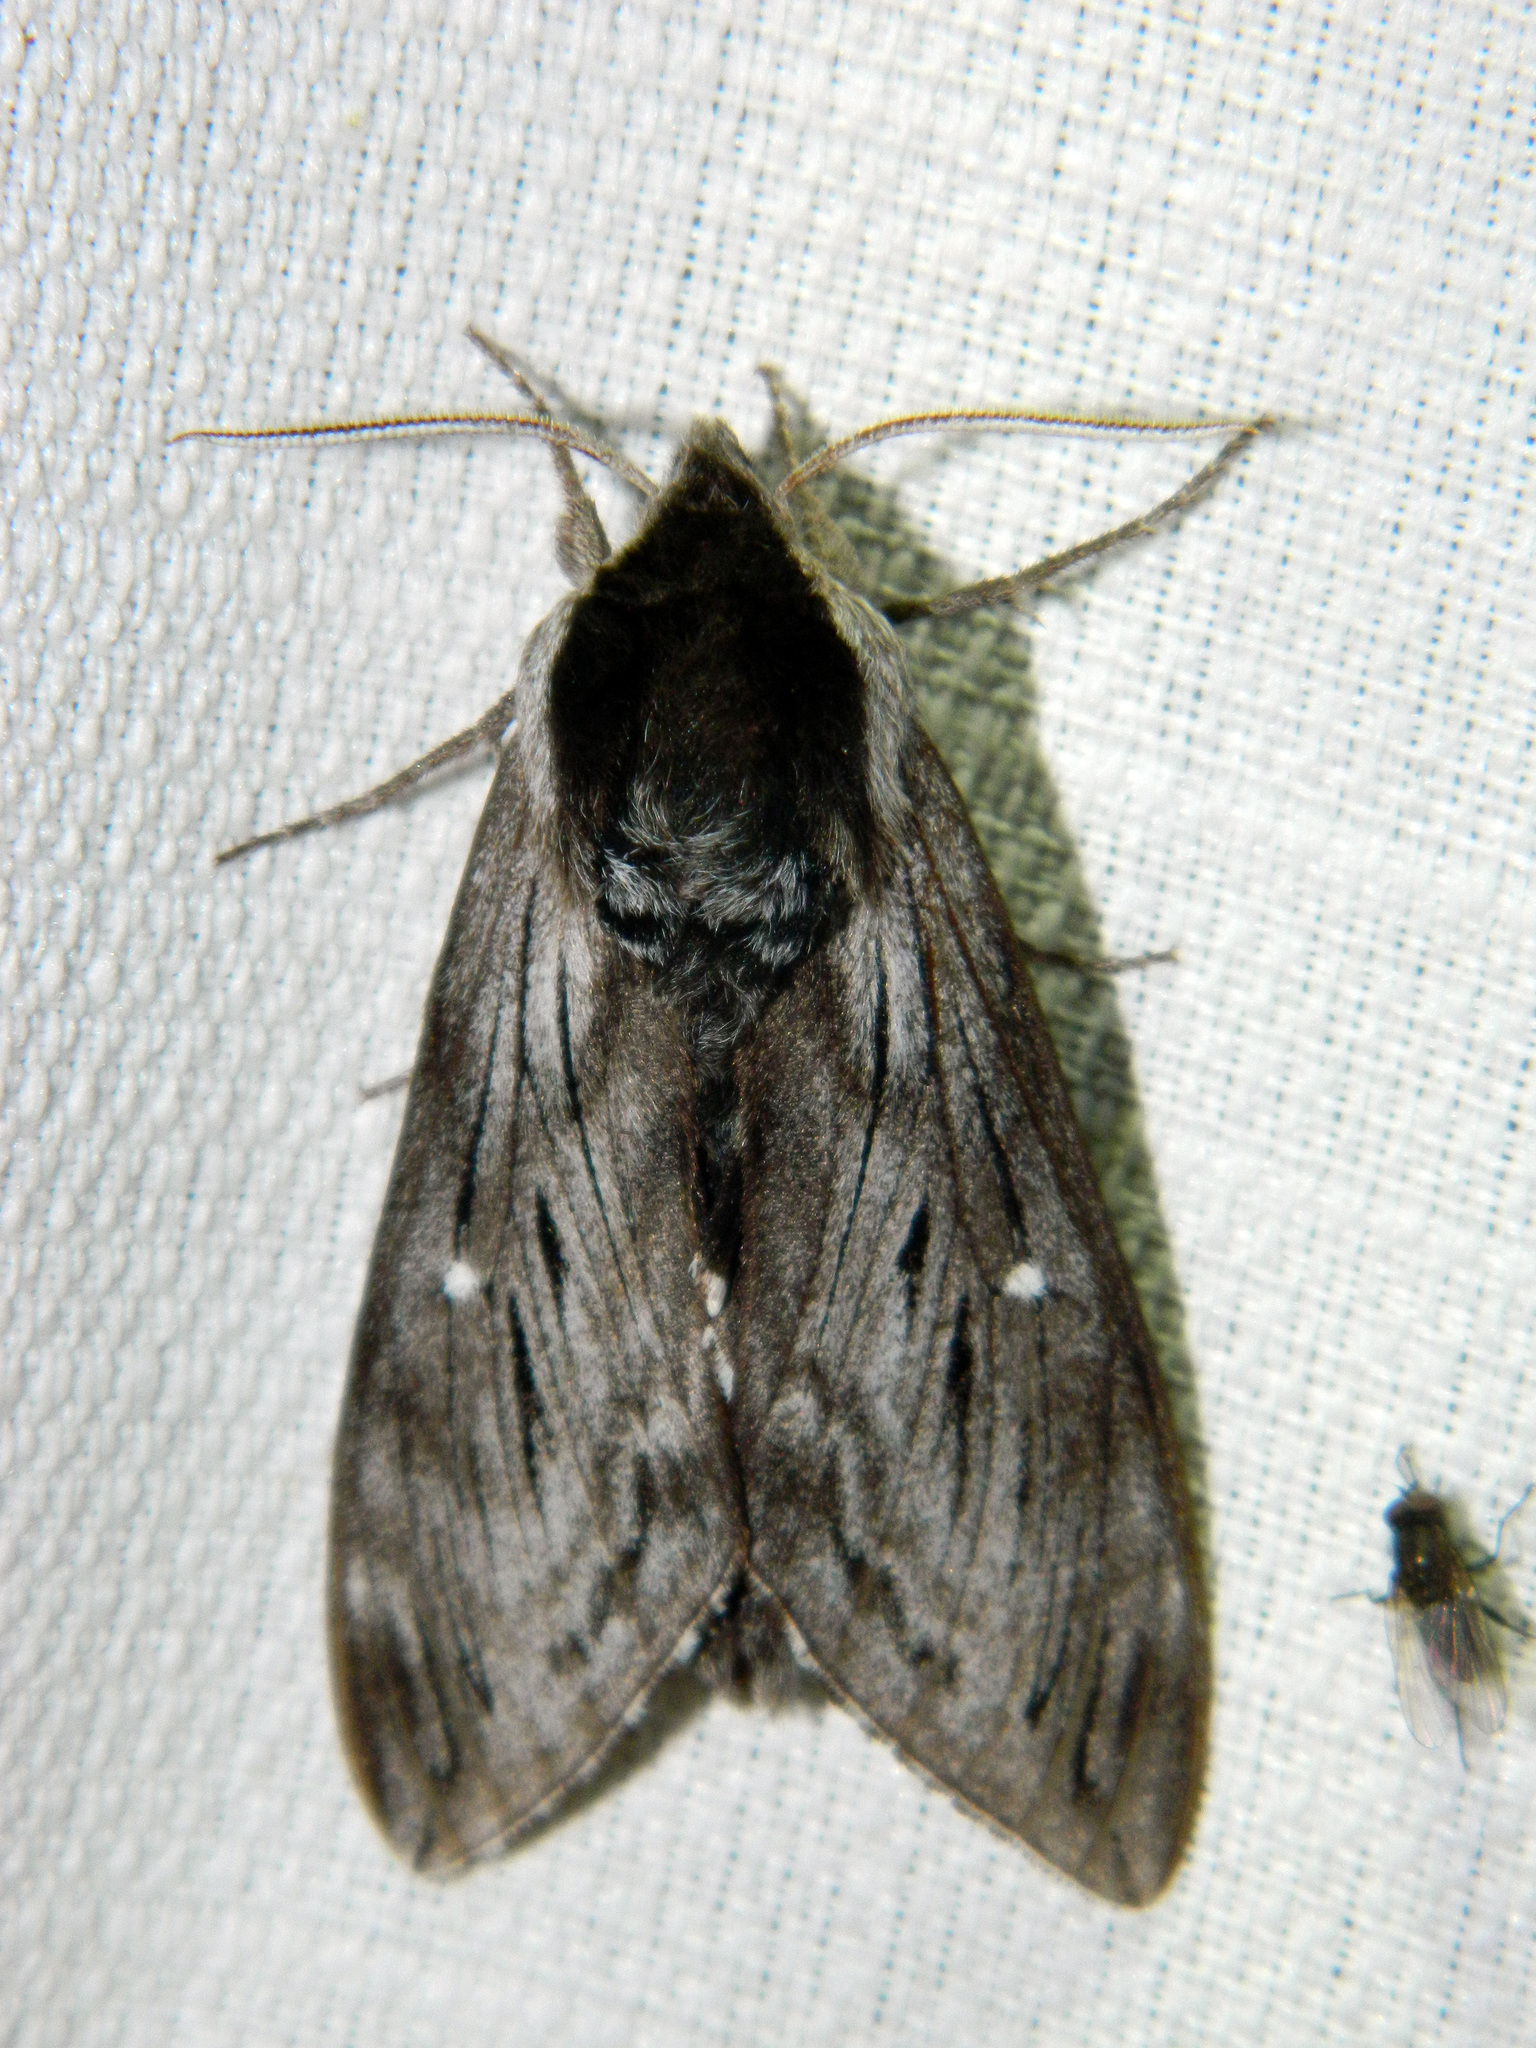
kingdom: Animalia
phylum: Arthropoda
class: Insecta
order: Lepidoptera
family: Sphingidae
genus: Sphinx
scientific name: Sphinx poecila
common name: Northern apple sphinx
